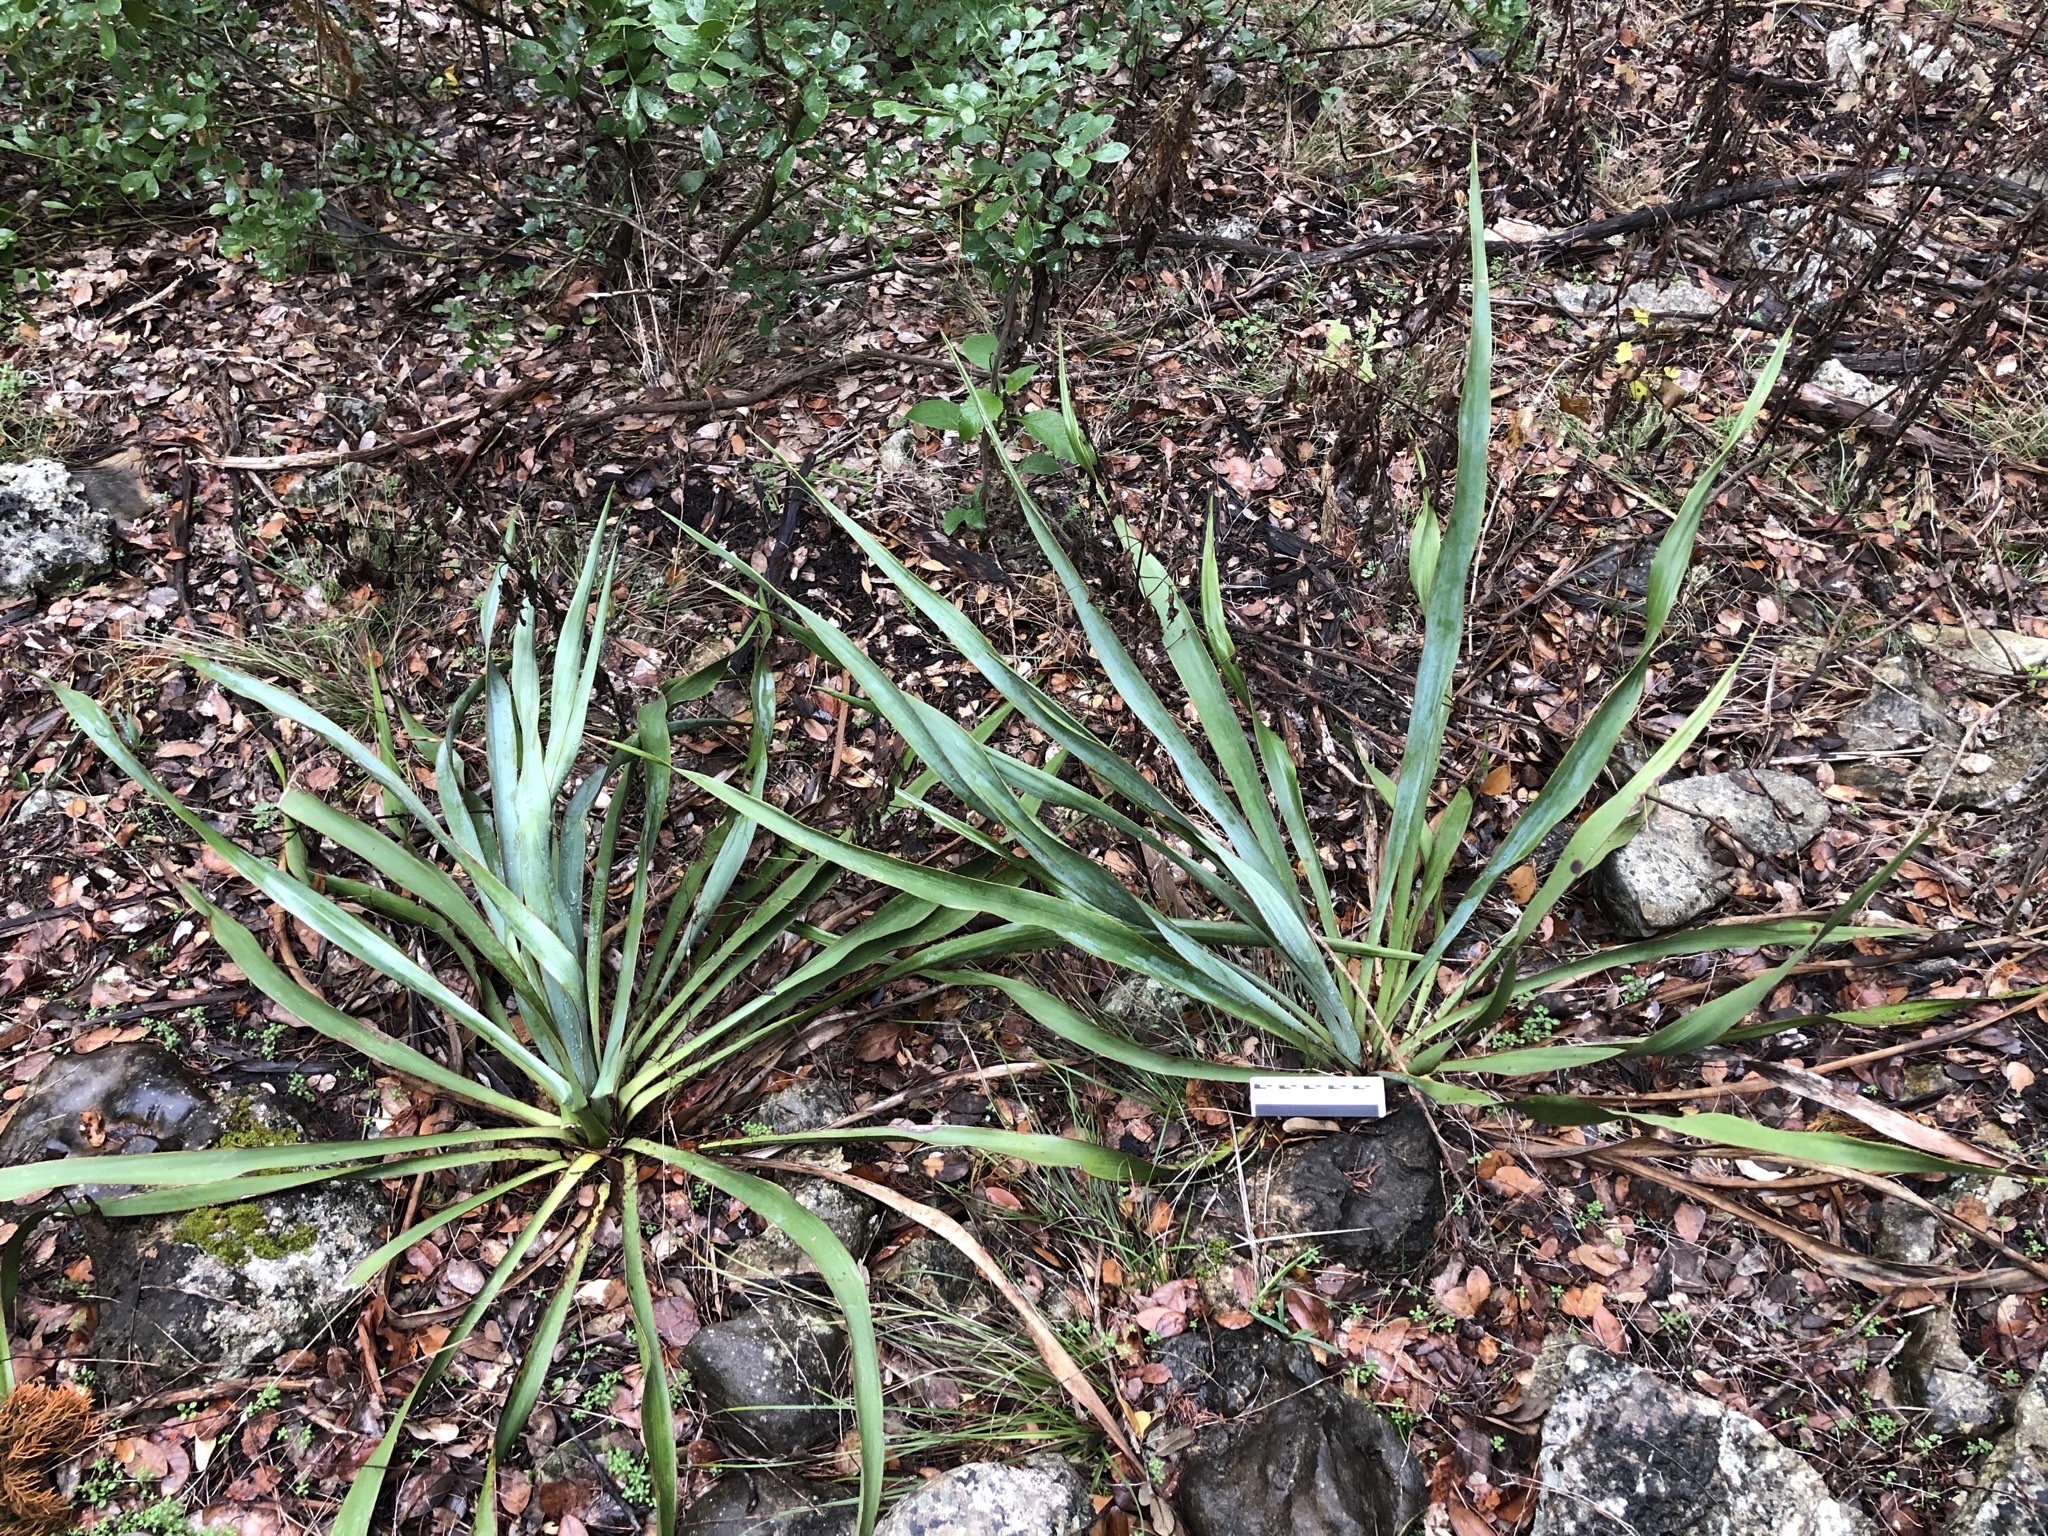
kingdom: Plantae
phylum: Tracheophyta
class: Liliopsida
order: Asparagales
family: Asparagaceae
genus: Yucca
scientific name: Yucca rupicola
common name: Twisted-leaf spanish-dagger
